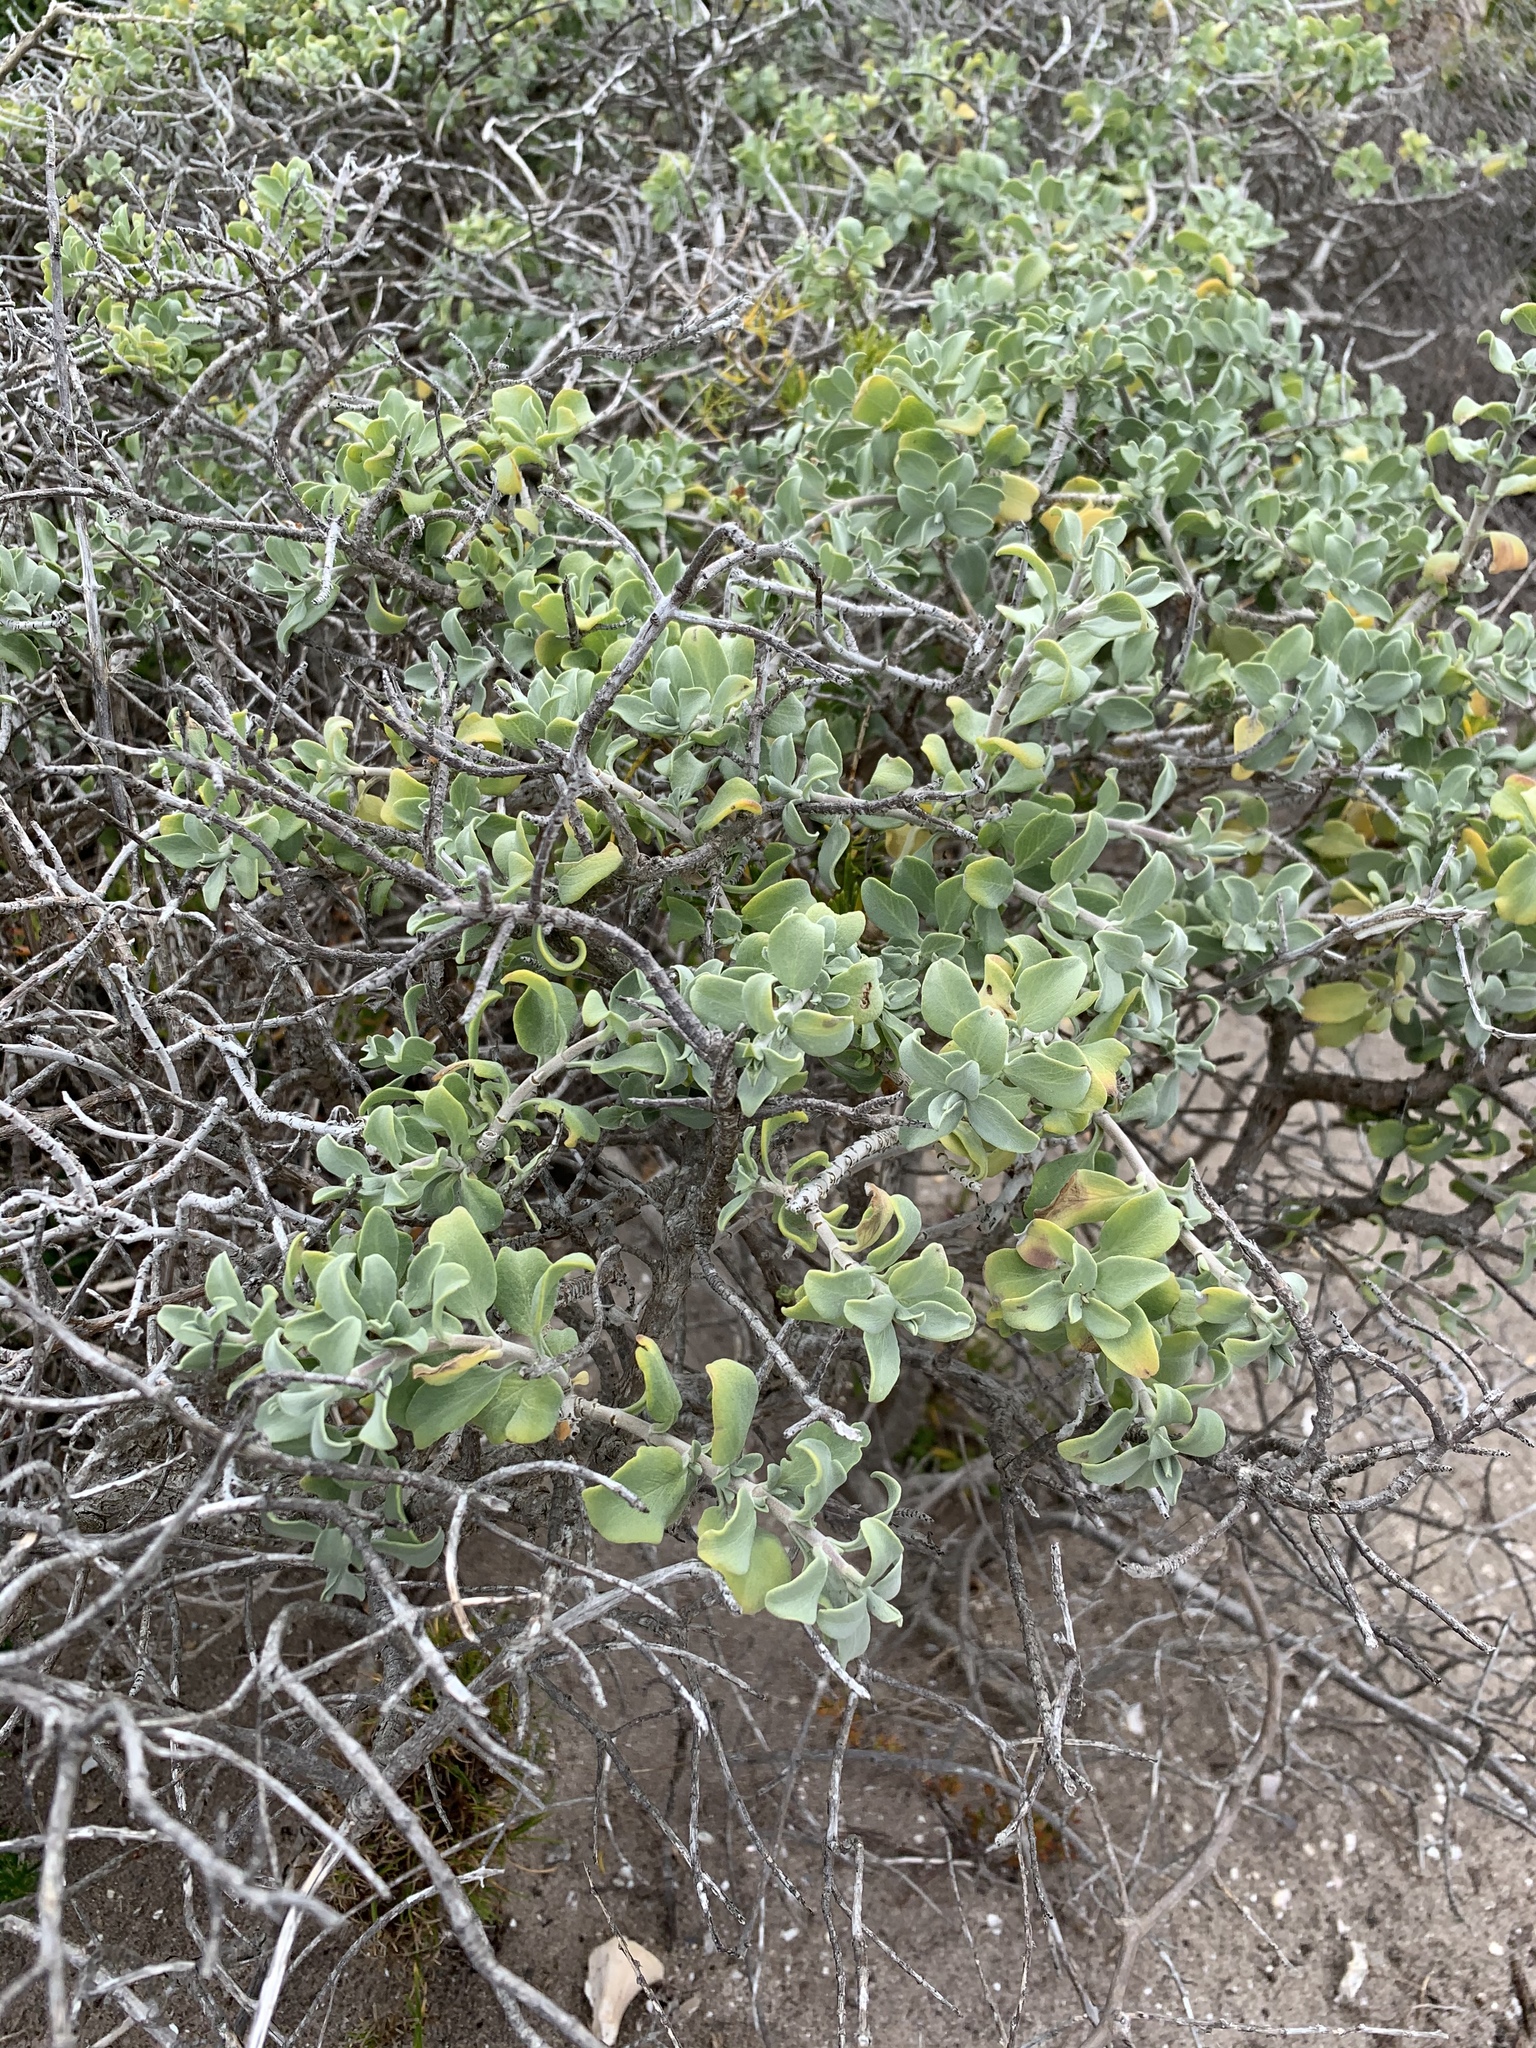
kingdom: Plantae
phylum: Tracheophyta
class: Magnoliopsida
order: Lamiales
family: Lamiaceae
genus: Salvia
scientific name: Salvia aurea
